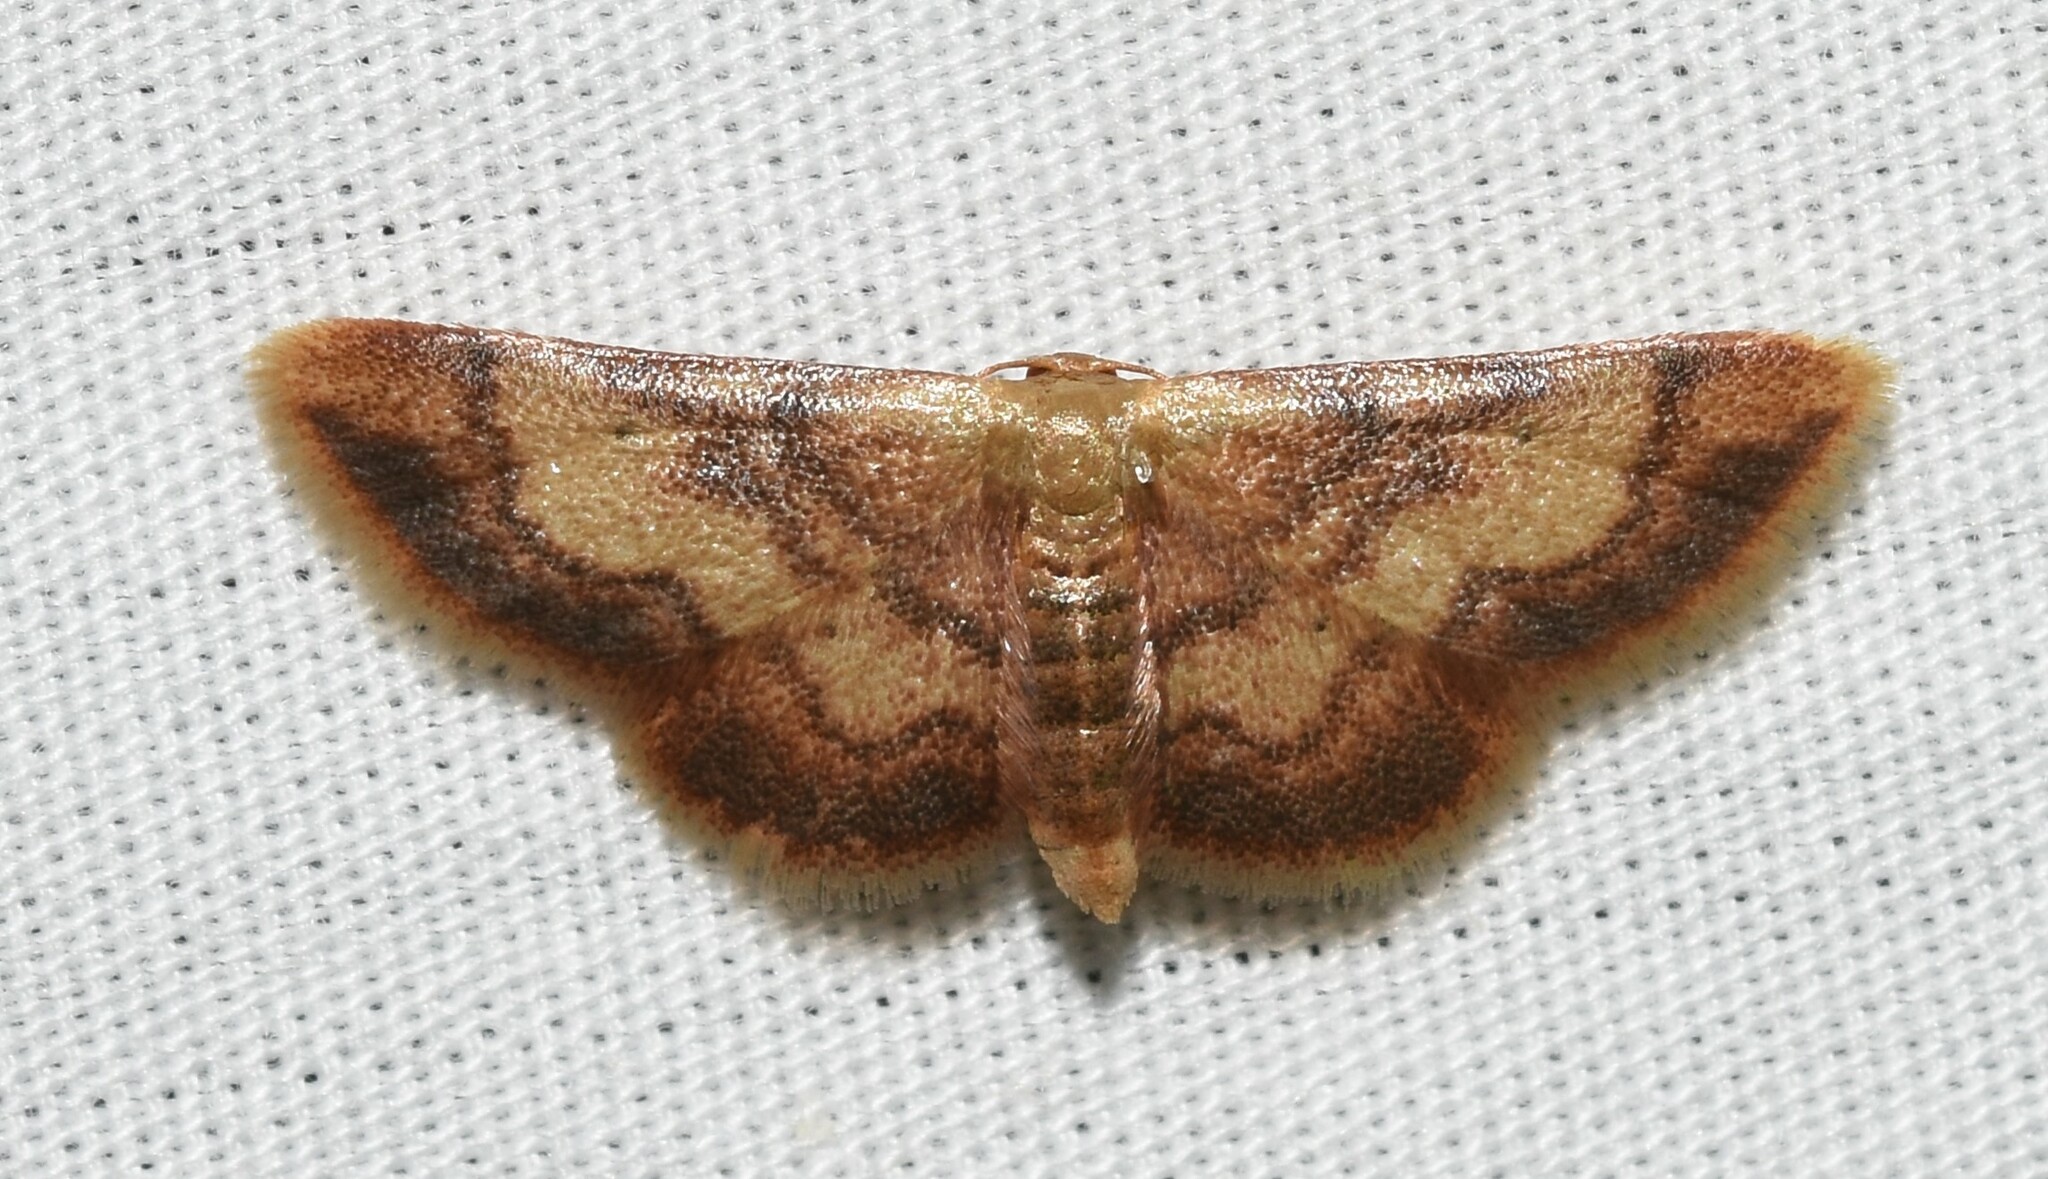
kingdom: Animalia
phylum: Arthropoda
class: Insecta
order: Lepidoptera
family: Geometridae
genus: Idaea
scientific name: Idaea demissaria
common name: Red-bordered wave
